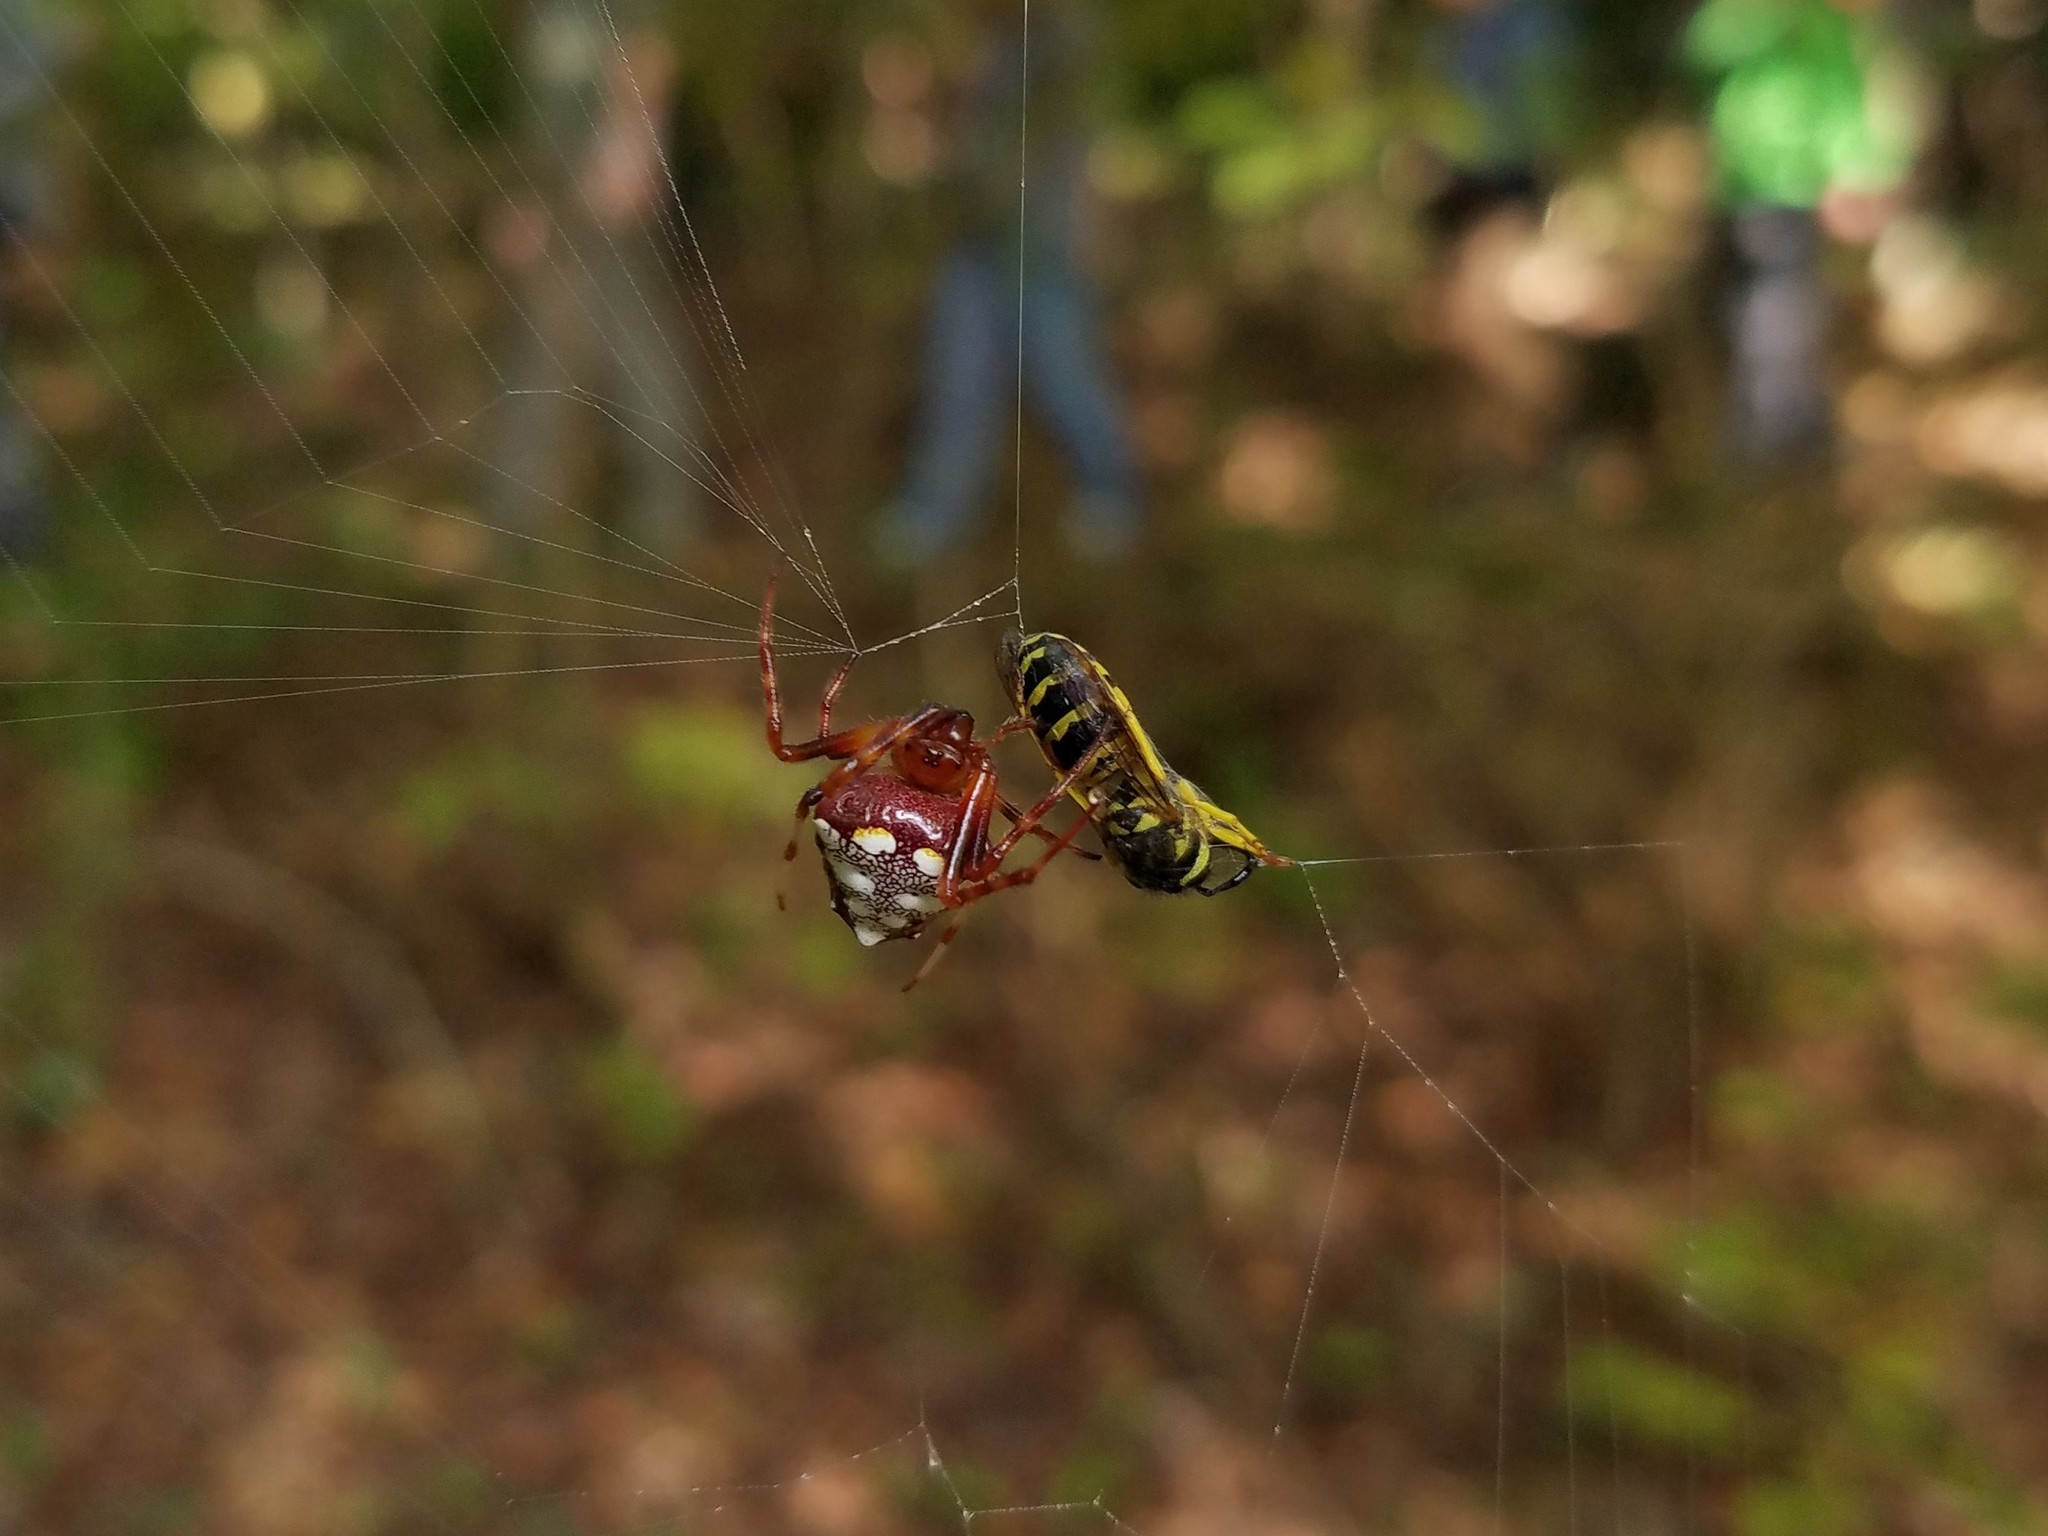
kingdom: Animalia
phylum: Arthropoda
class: Arachnida
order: Araneae
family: Araneidae
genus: Verrucosa
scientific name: Verrucosa arenata
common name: Orb weavers
